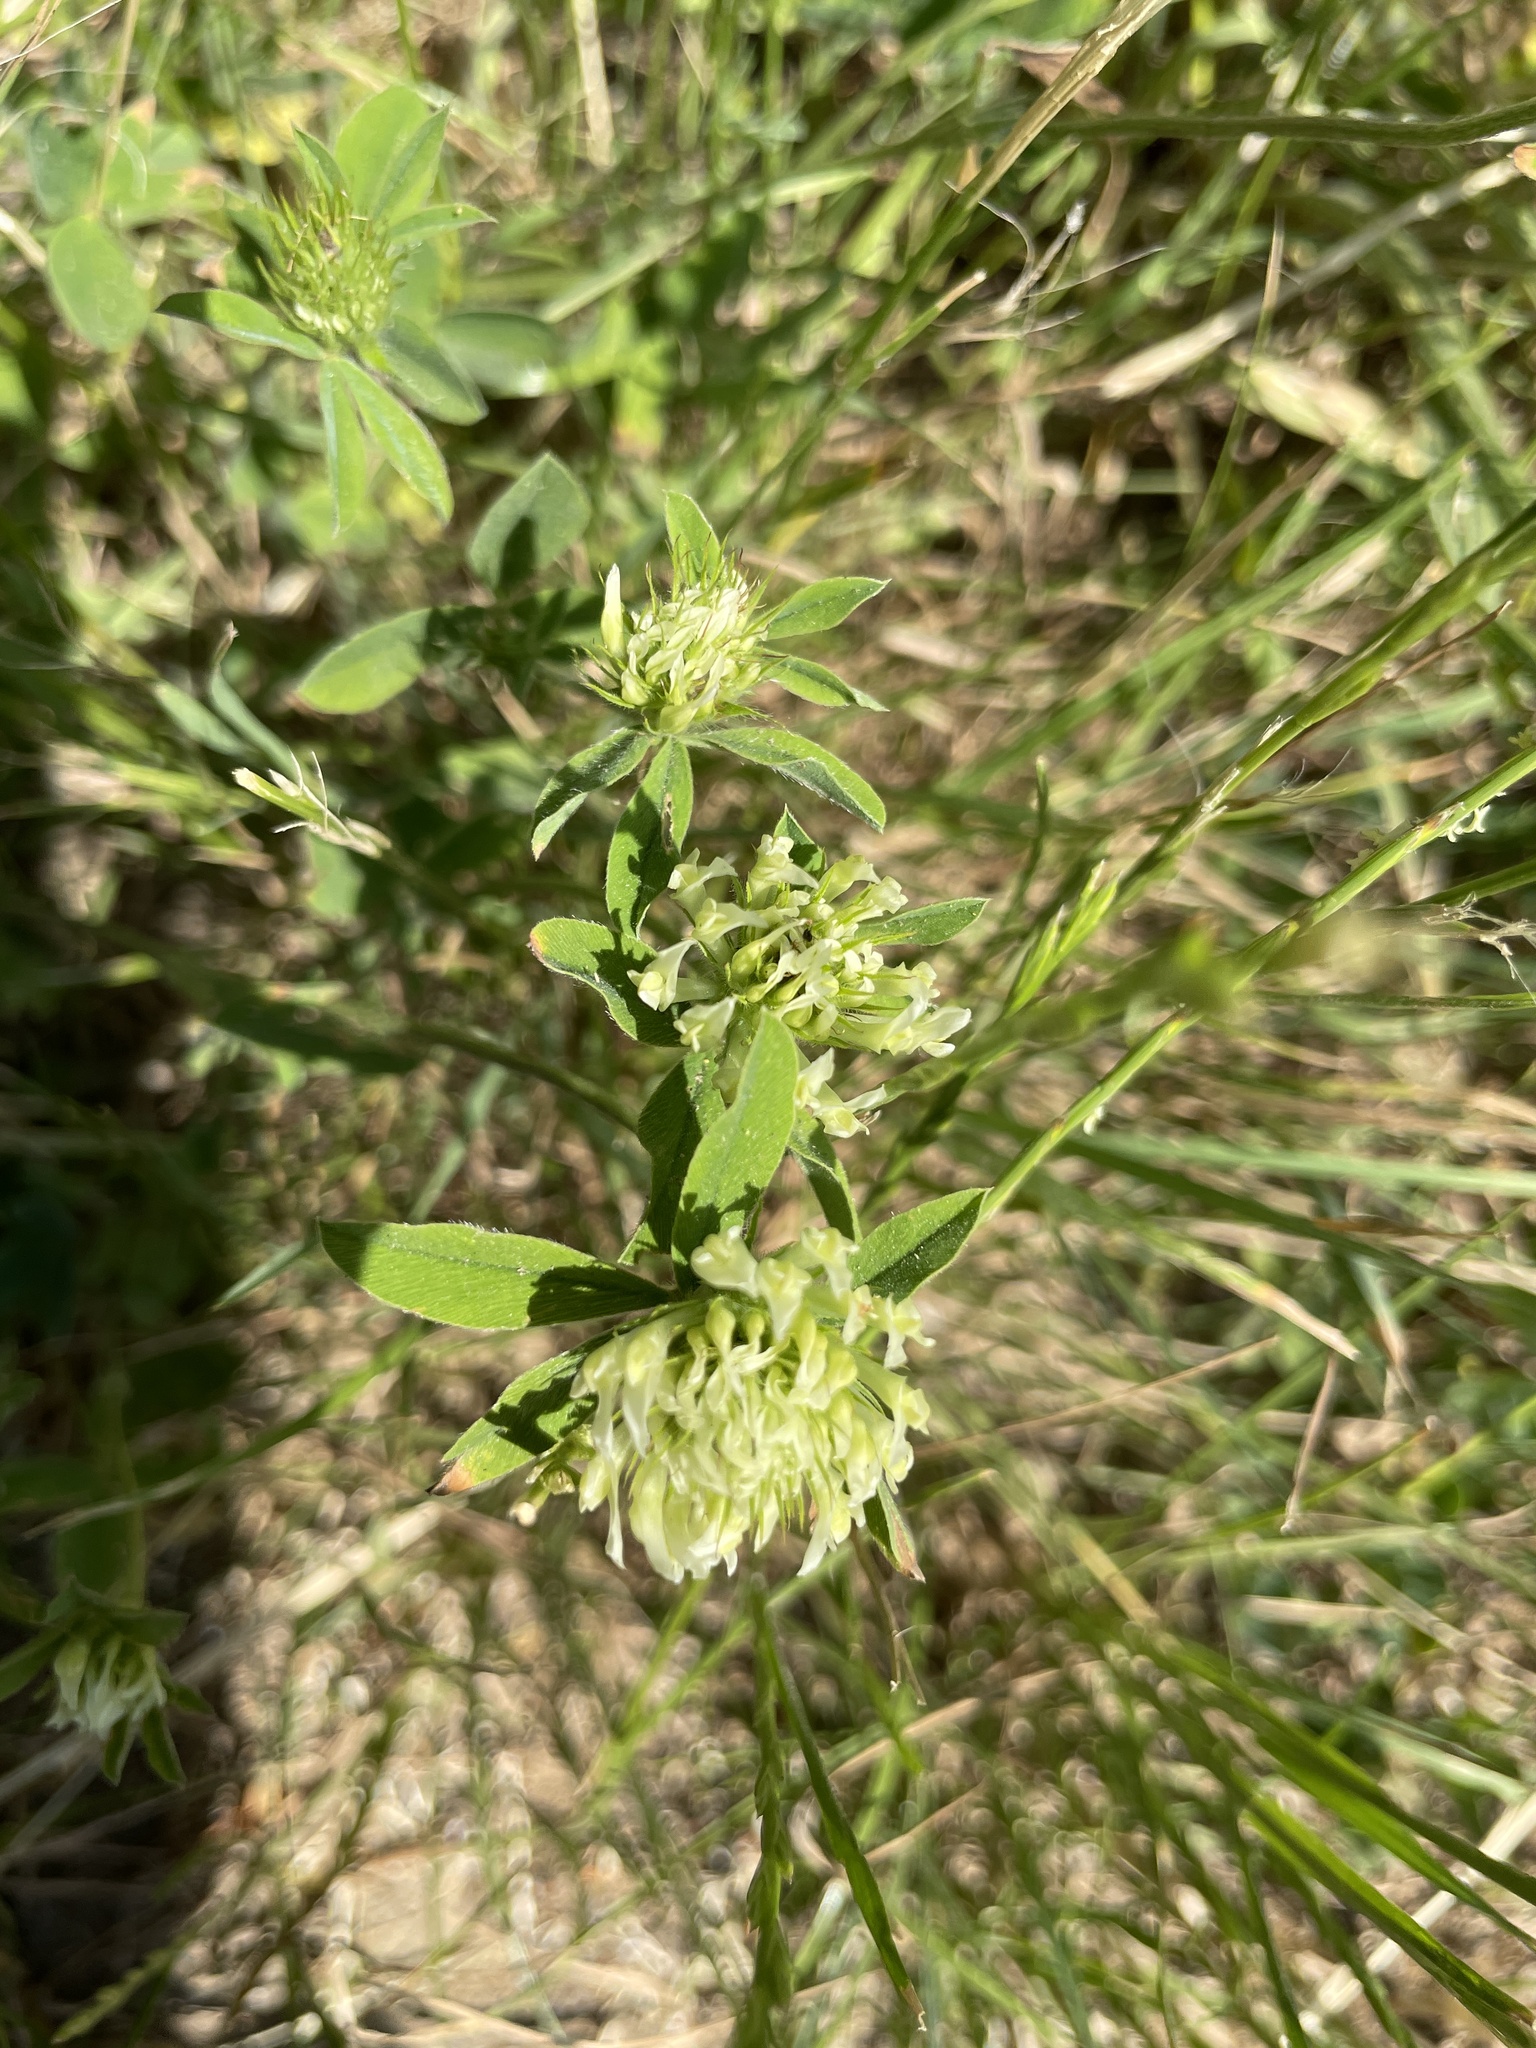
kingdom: Plantae
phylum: Tracheophyta
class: Magnoliopsida
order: Fabales
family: Fabaceae
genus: Trifolium
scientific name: Trifolium ochroleucon
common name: Sulphur clover
